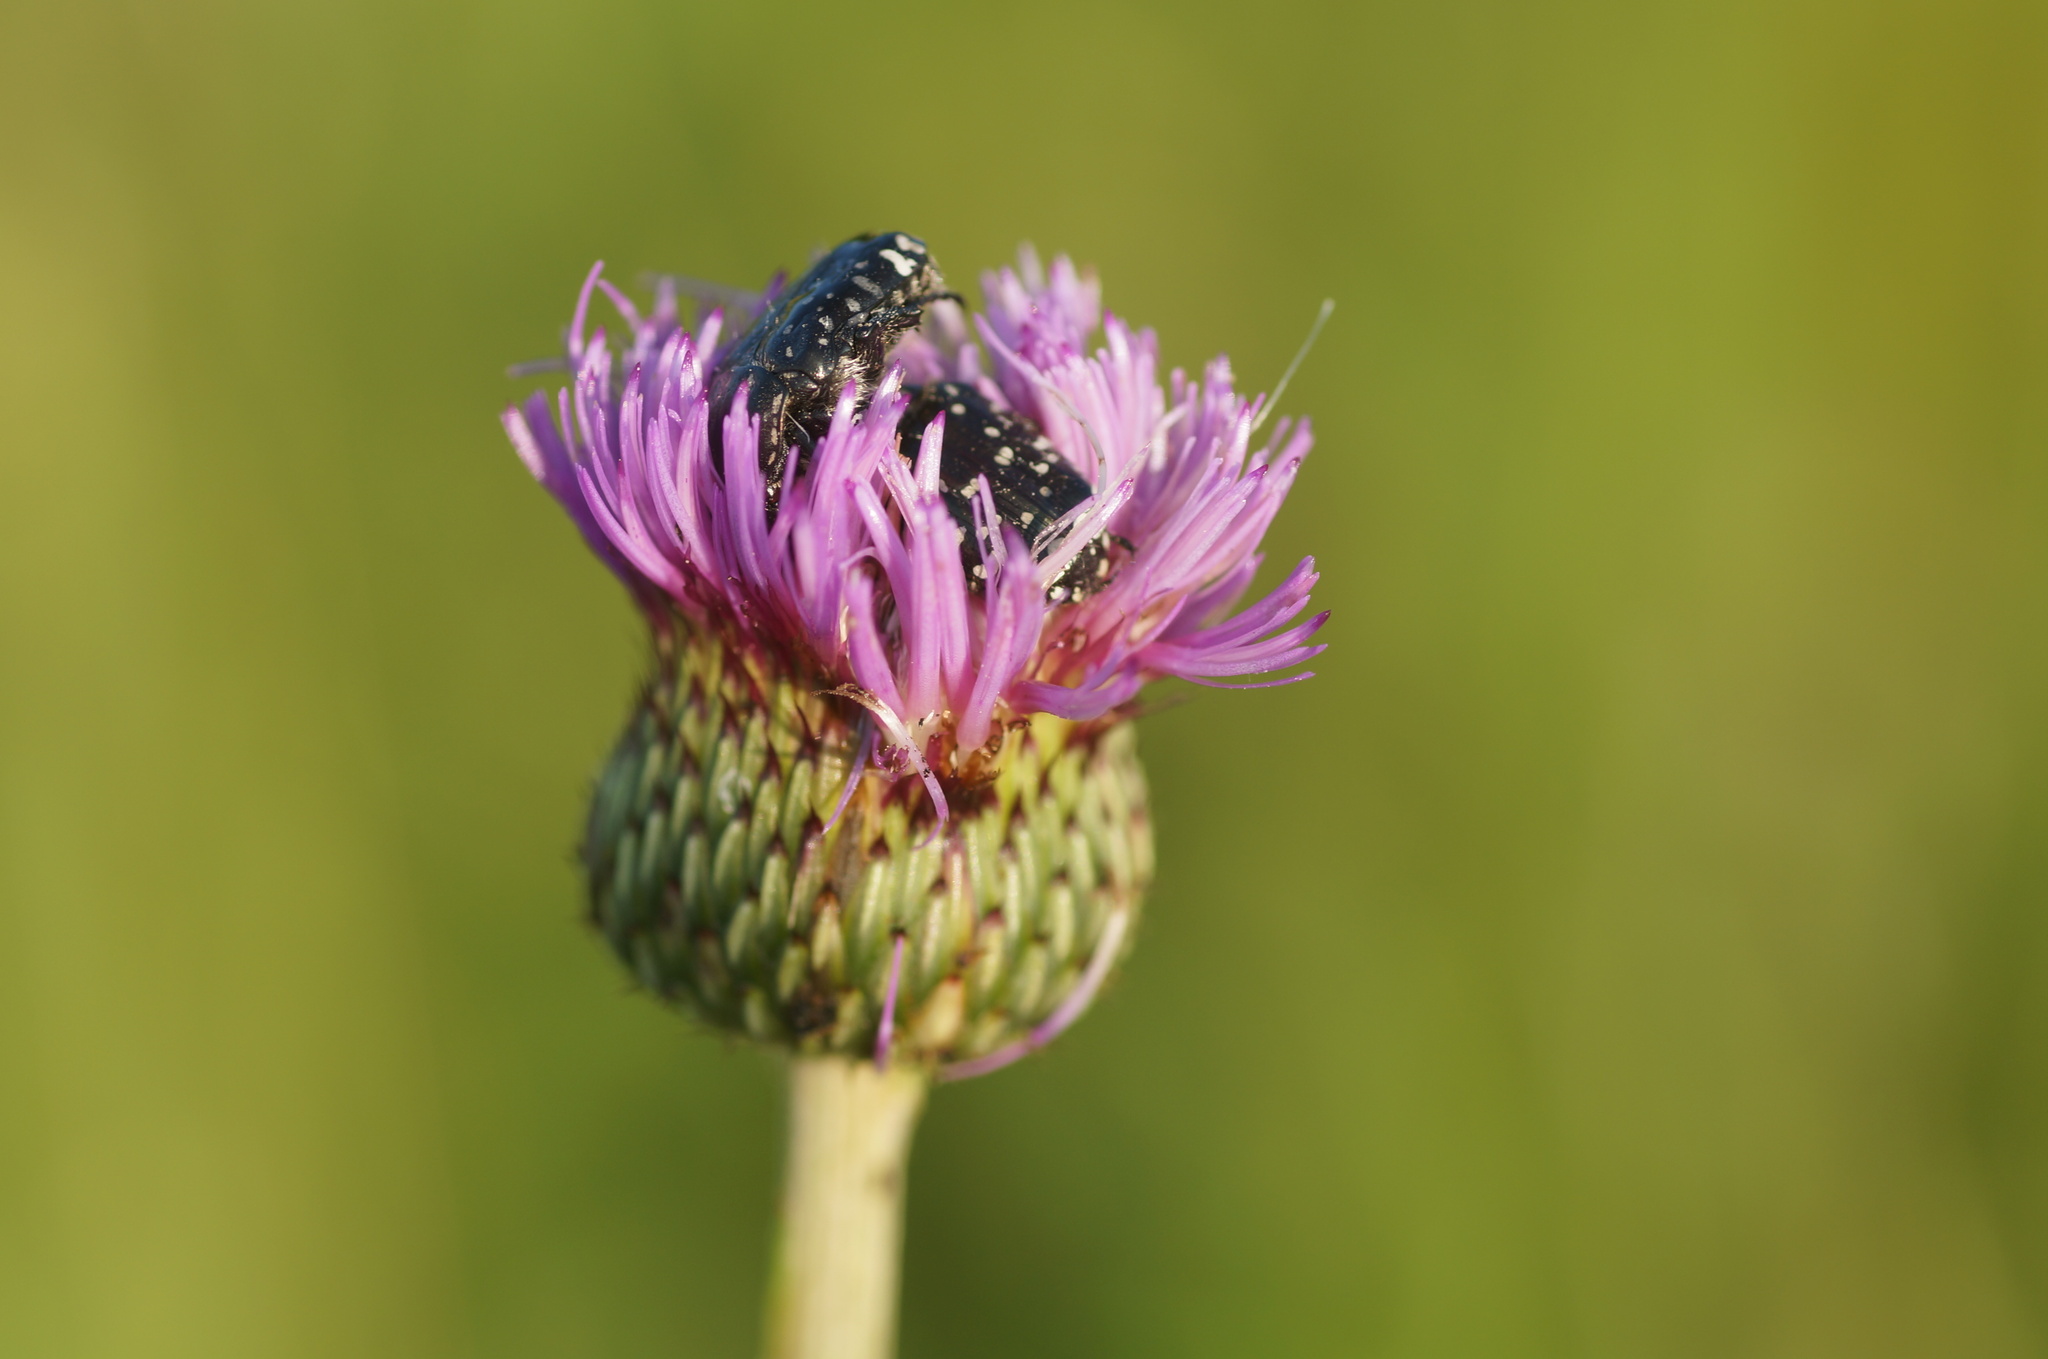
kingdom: Animalia
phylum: Arthropoda
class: Insecta
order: Coleoptera
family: Scarabaeidae
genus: Oxythyrea
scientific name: Oxythyrea funesta
